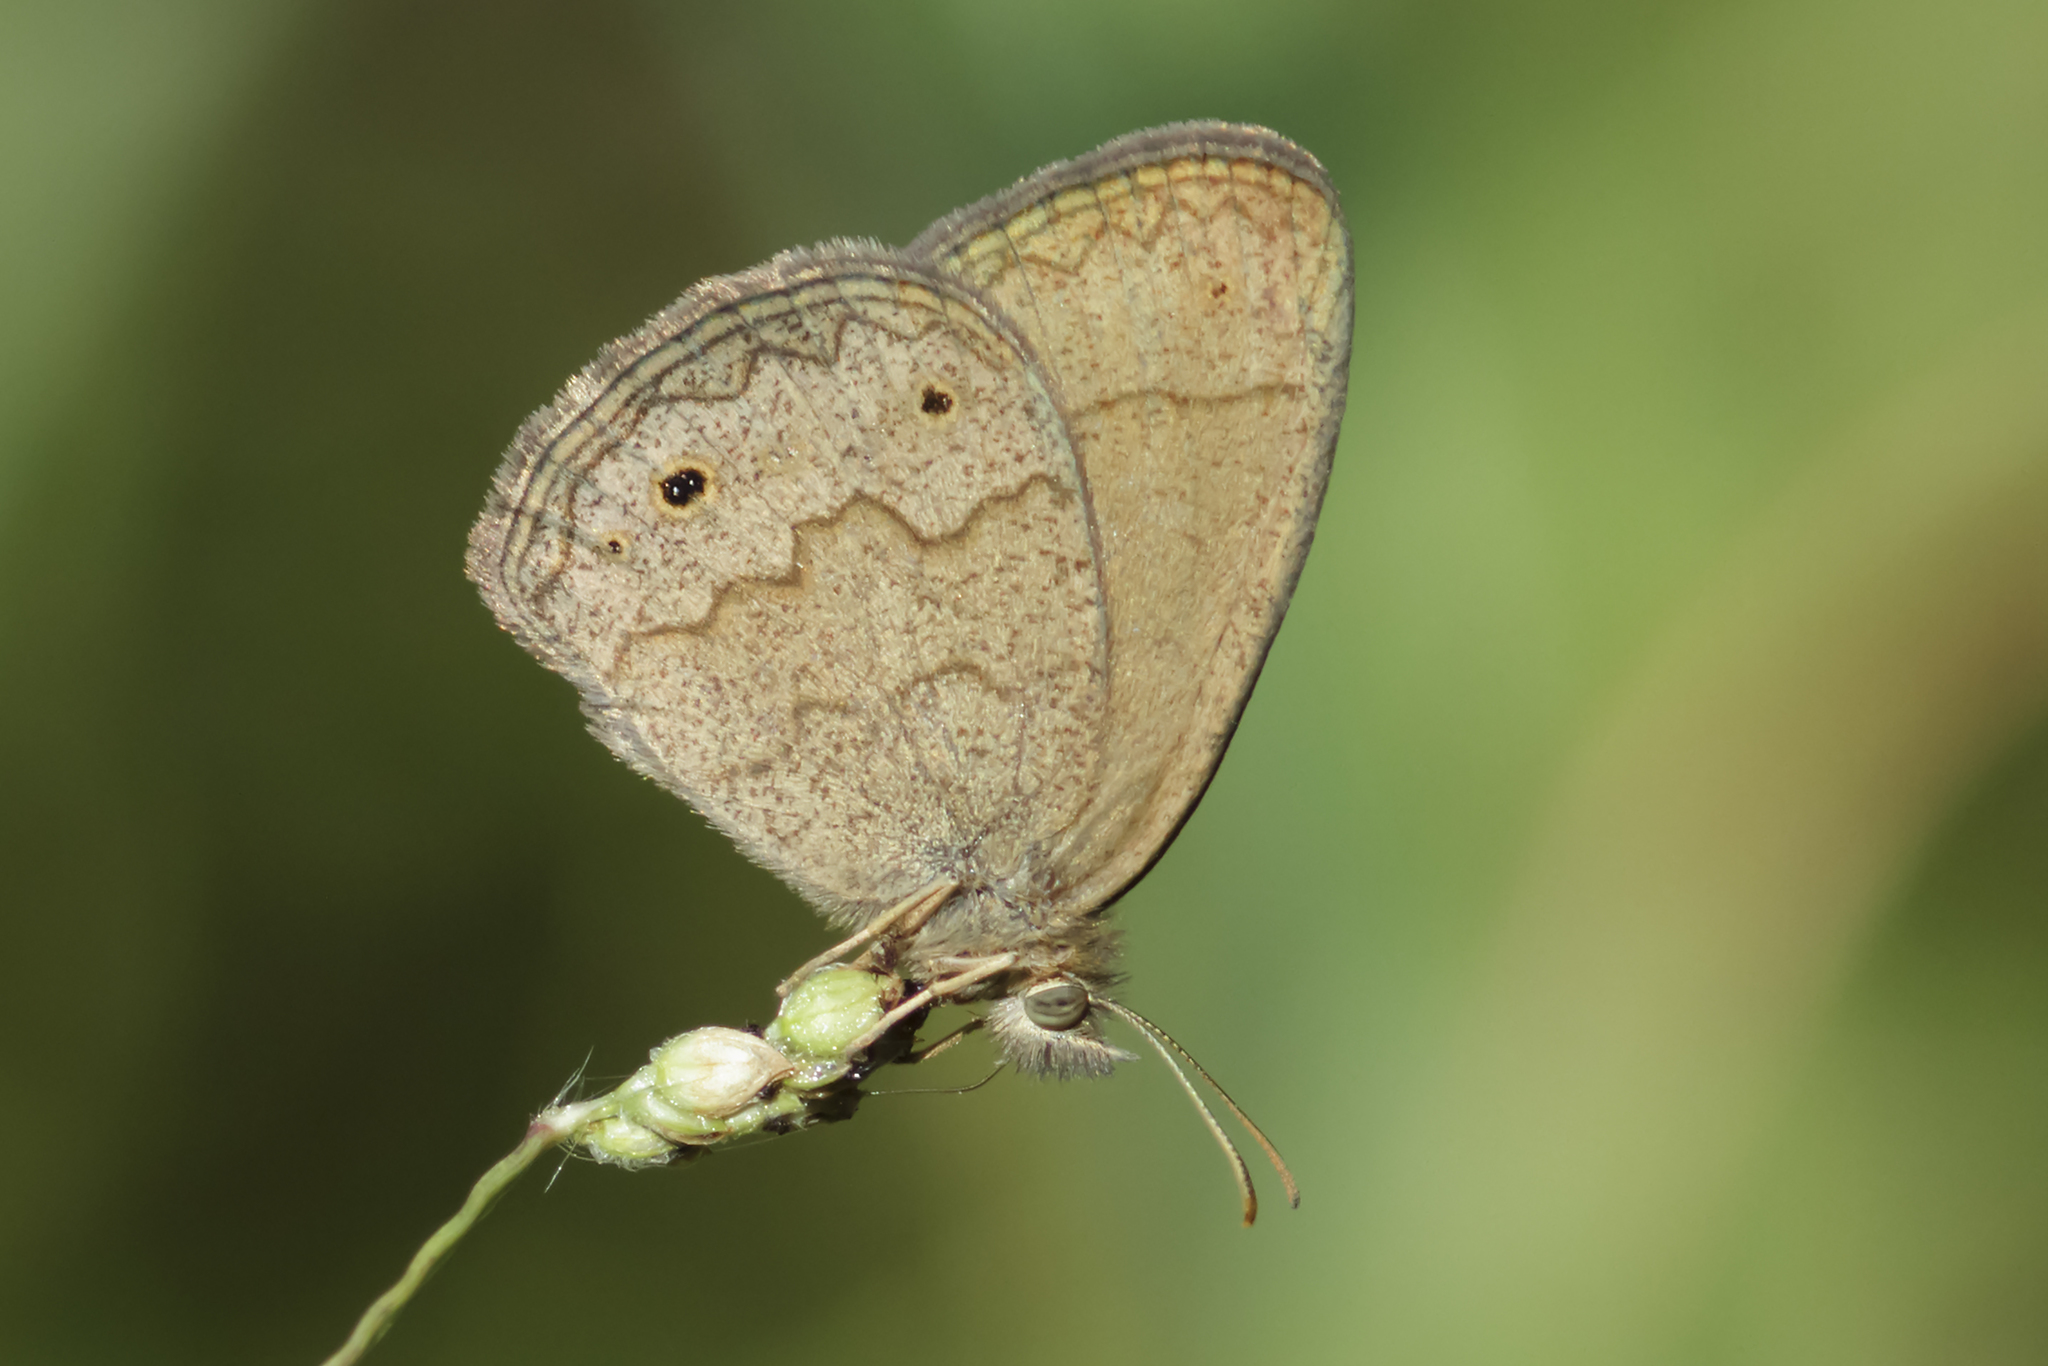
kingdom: Animalia
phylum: Arthropoda
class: Insecta
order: Lepidoptera
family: Nymphalidae
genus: Yphthimoides
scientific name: Yphthimoides celmis
